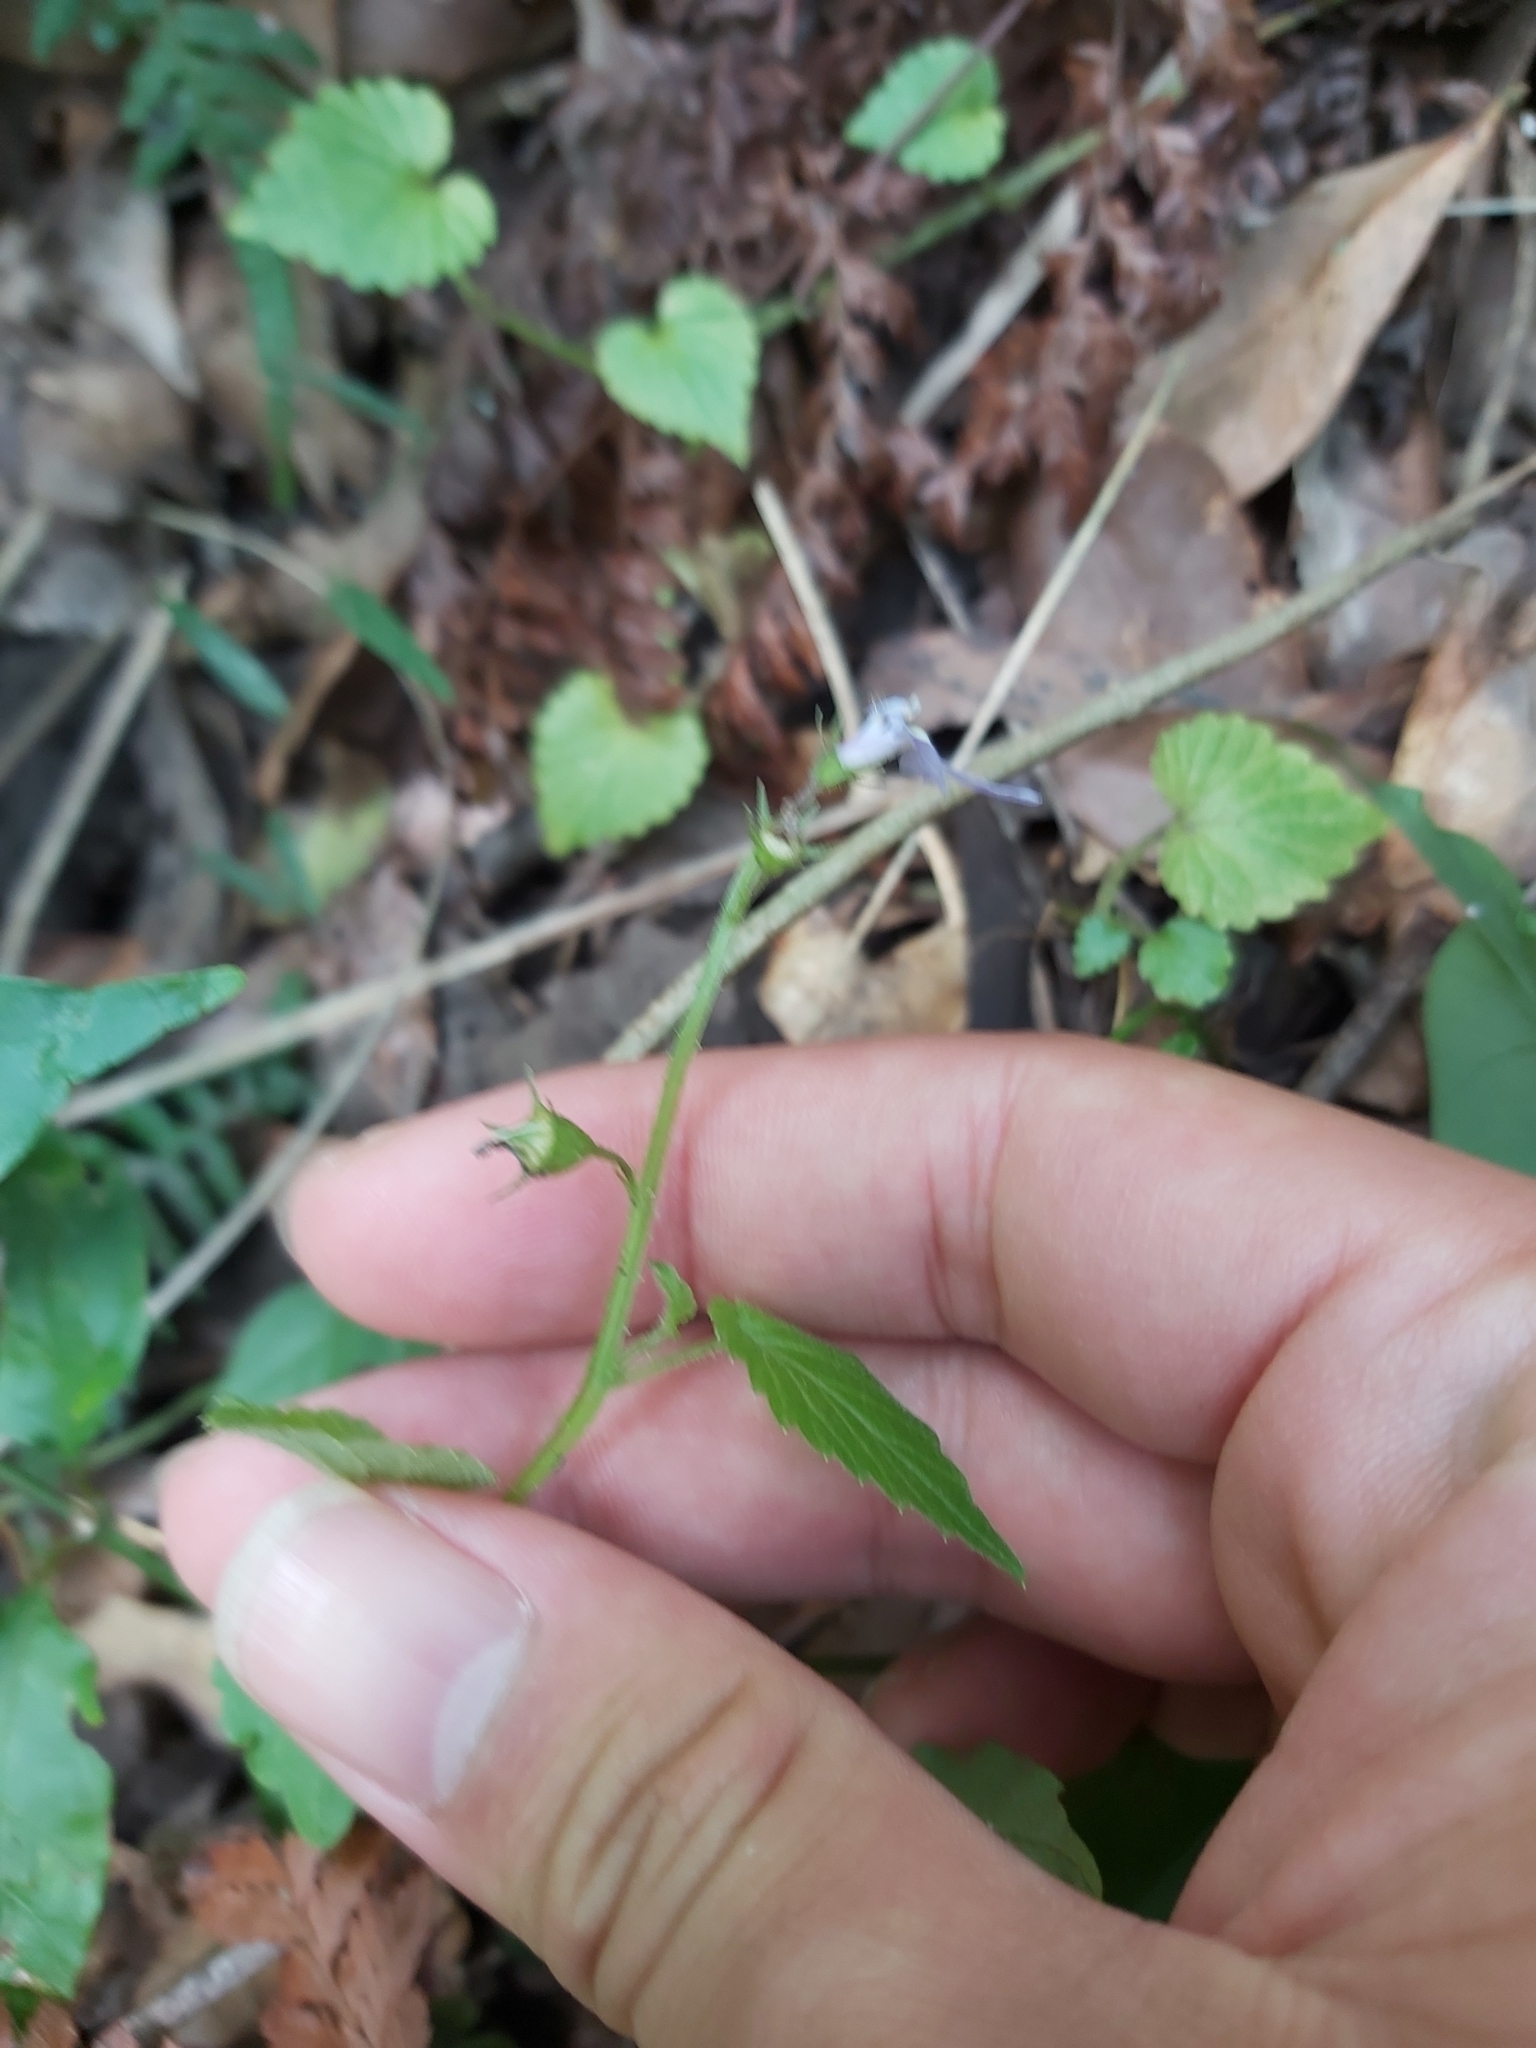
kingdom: Plantae
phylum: Tracheophyta
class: Magnoliopsida
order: Asterales
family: Campanulaceae
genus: Lobelia
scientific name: Lobelia trigonocaulis
